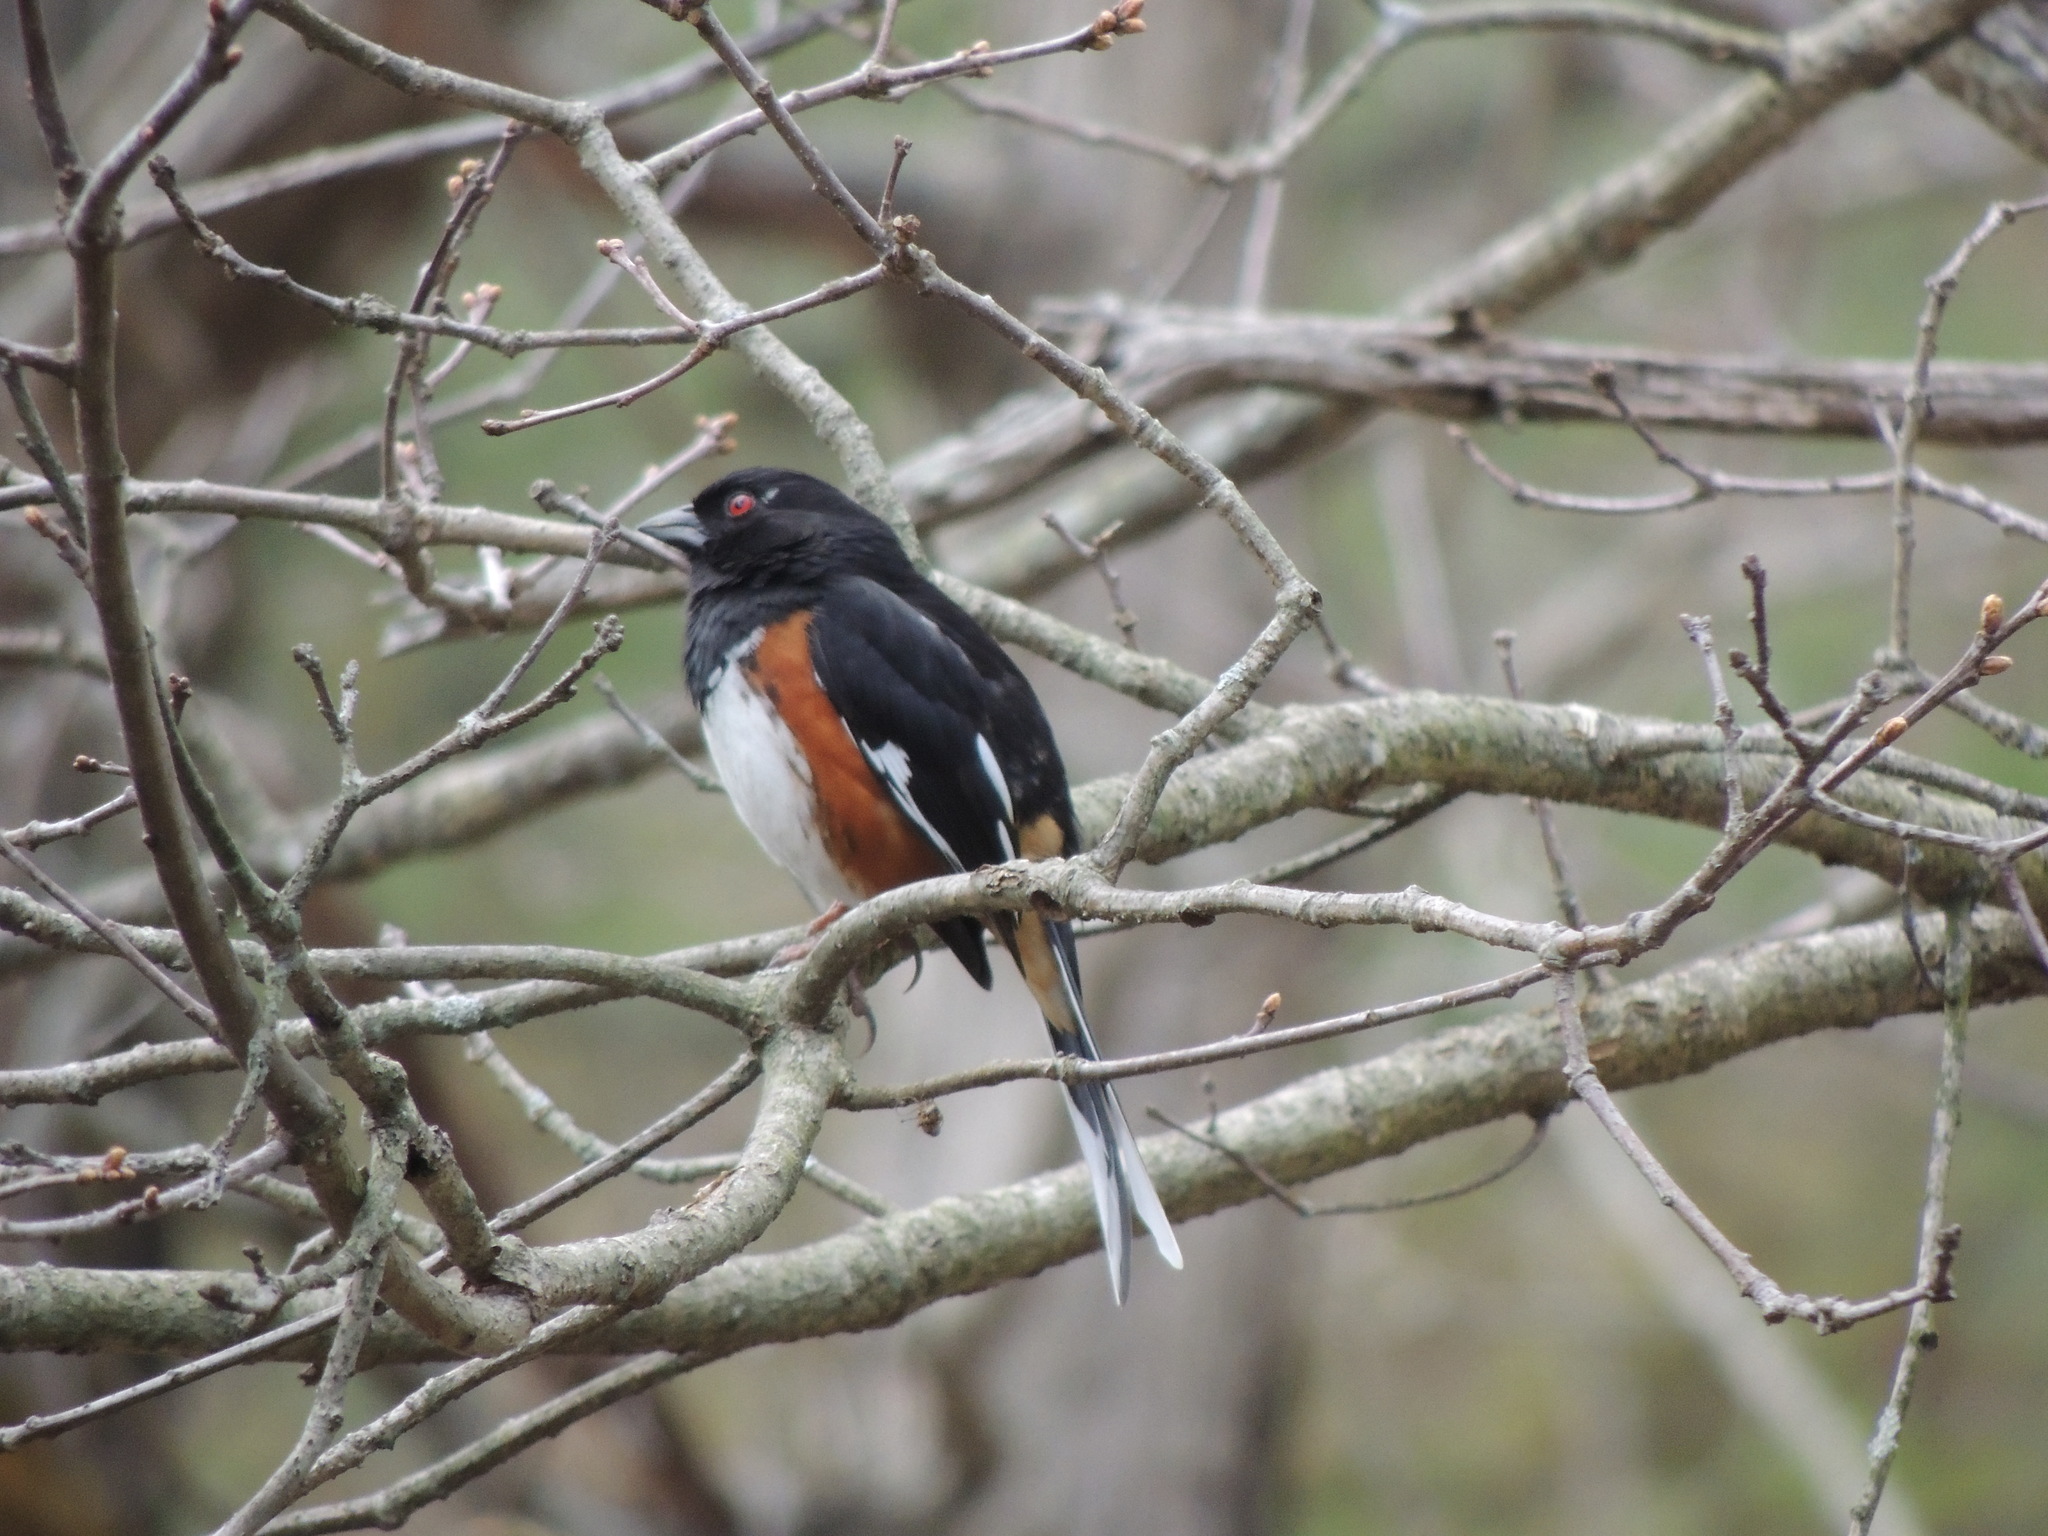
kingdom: Animalia
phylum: Chordata
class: Aves
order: Passeriformes
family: Passerellidae
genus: Pipilo
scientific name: Pipilo erythrophthalmus
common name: Eastern towhee
